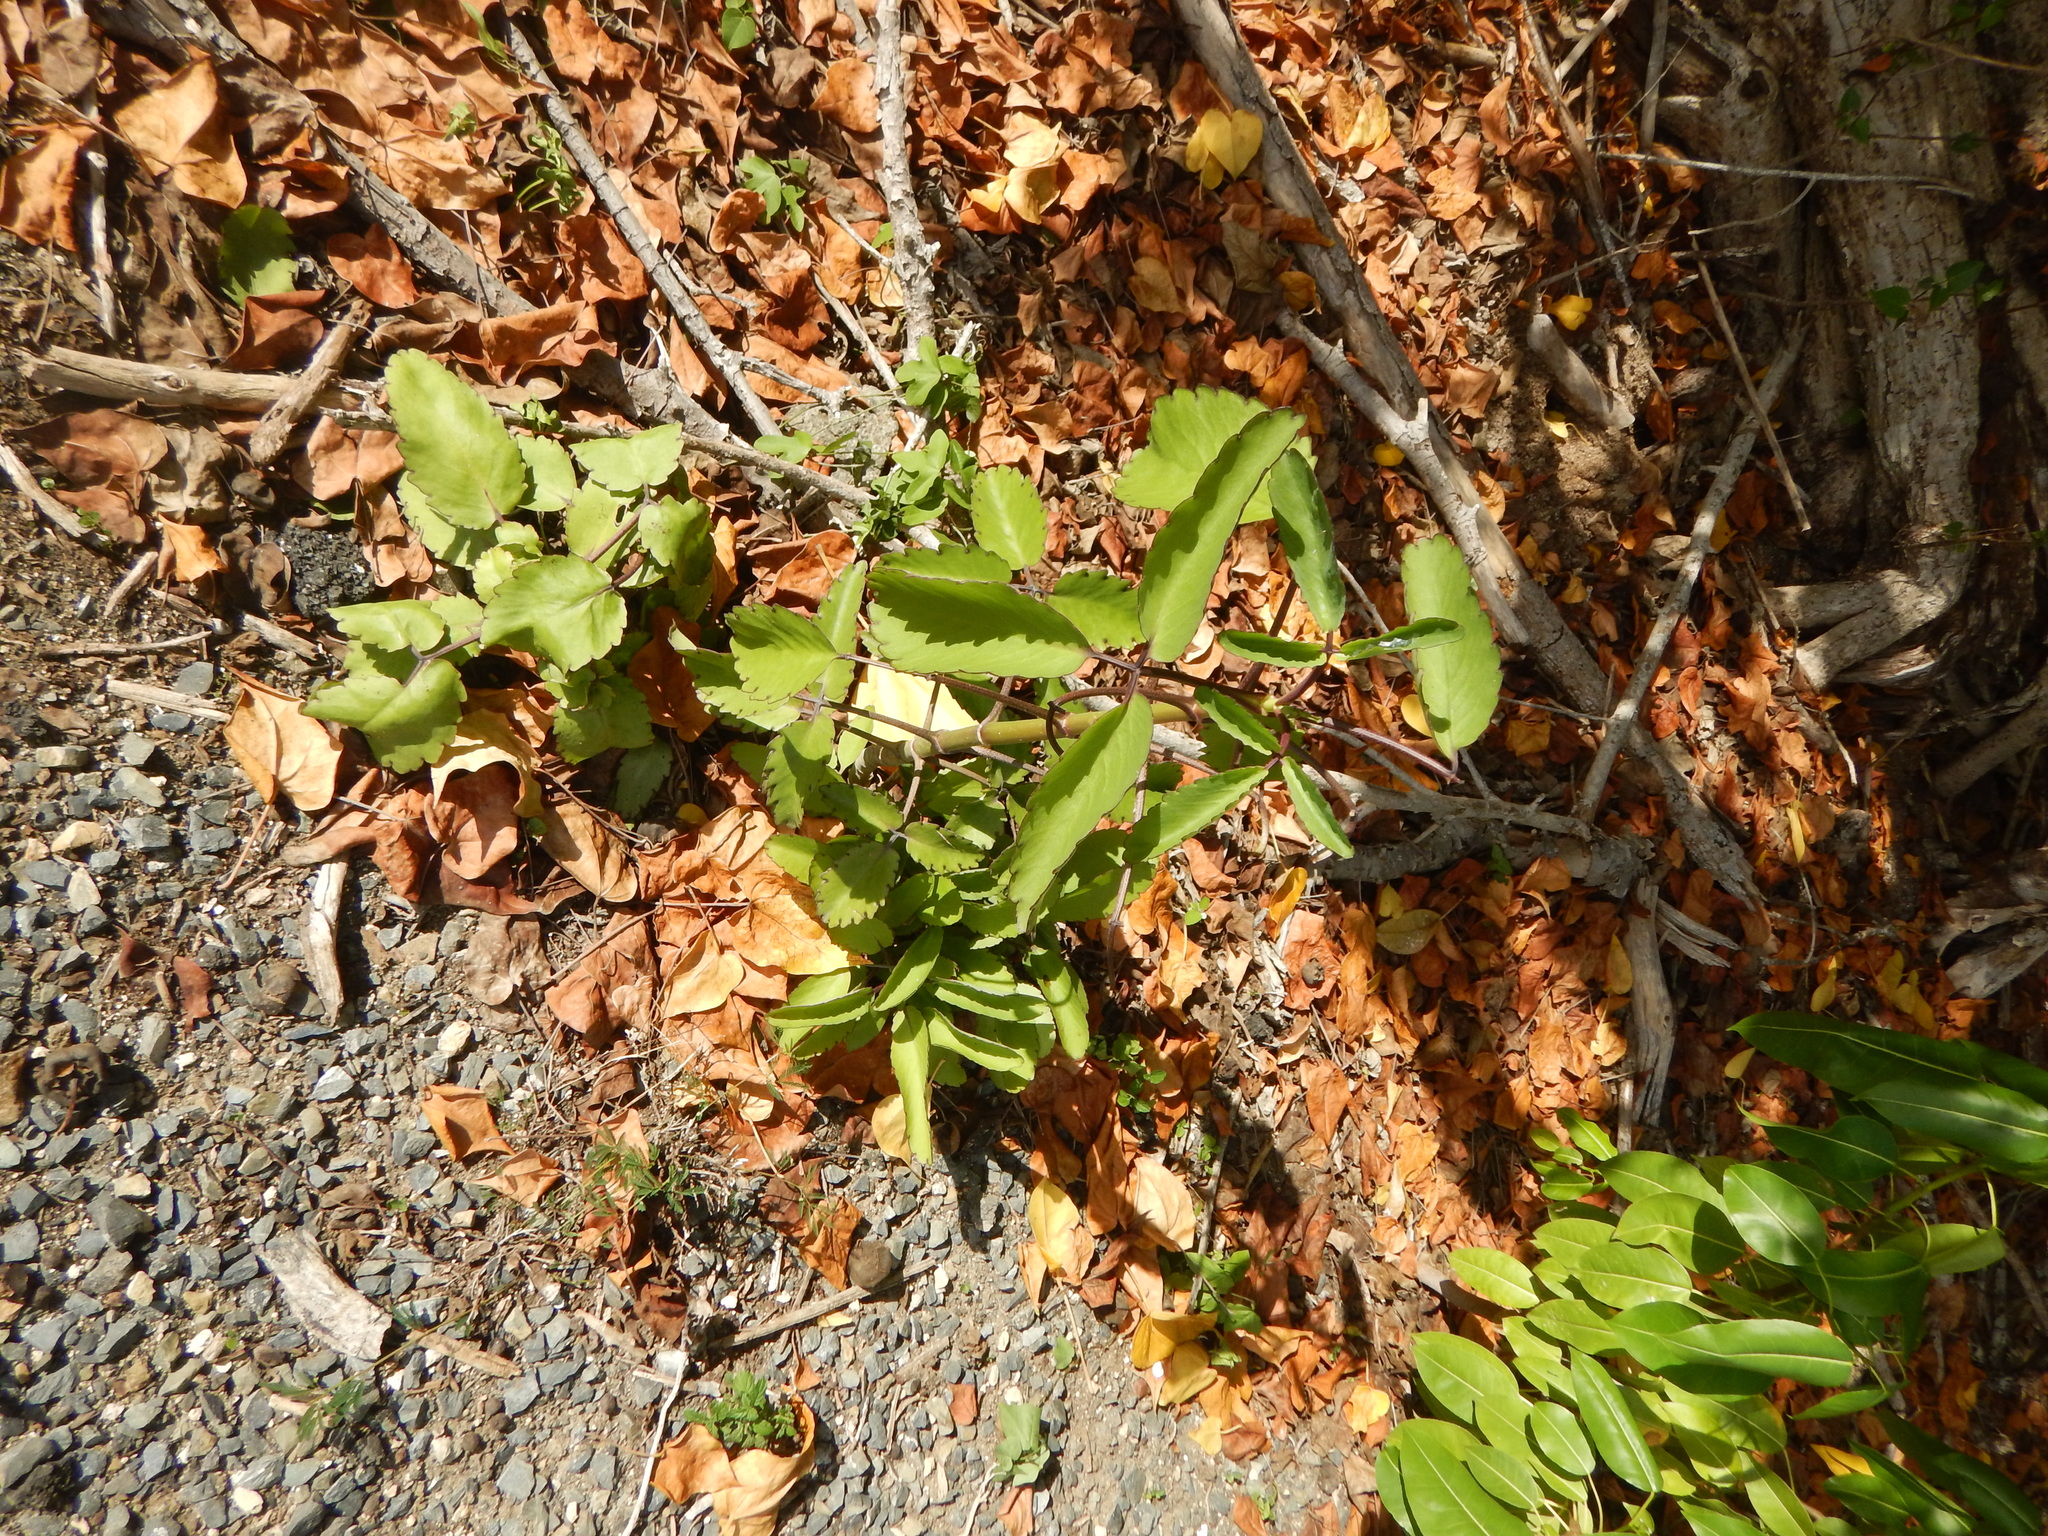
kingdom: Plantae
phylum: Tracheophyta
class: Magnoliopsida
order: Saxifragales
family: Crassulaceae
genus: Kalanchoe
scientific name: Kalanchoe pinnata
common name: Cathedral bells
